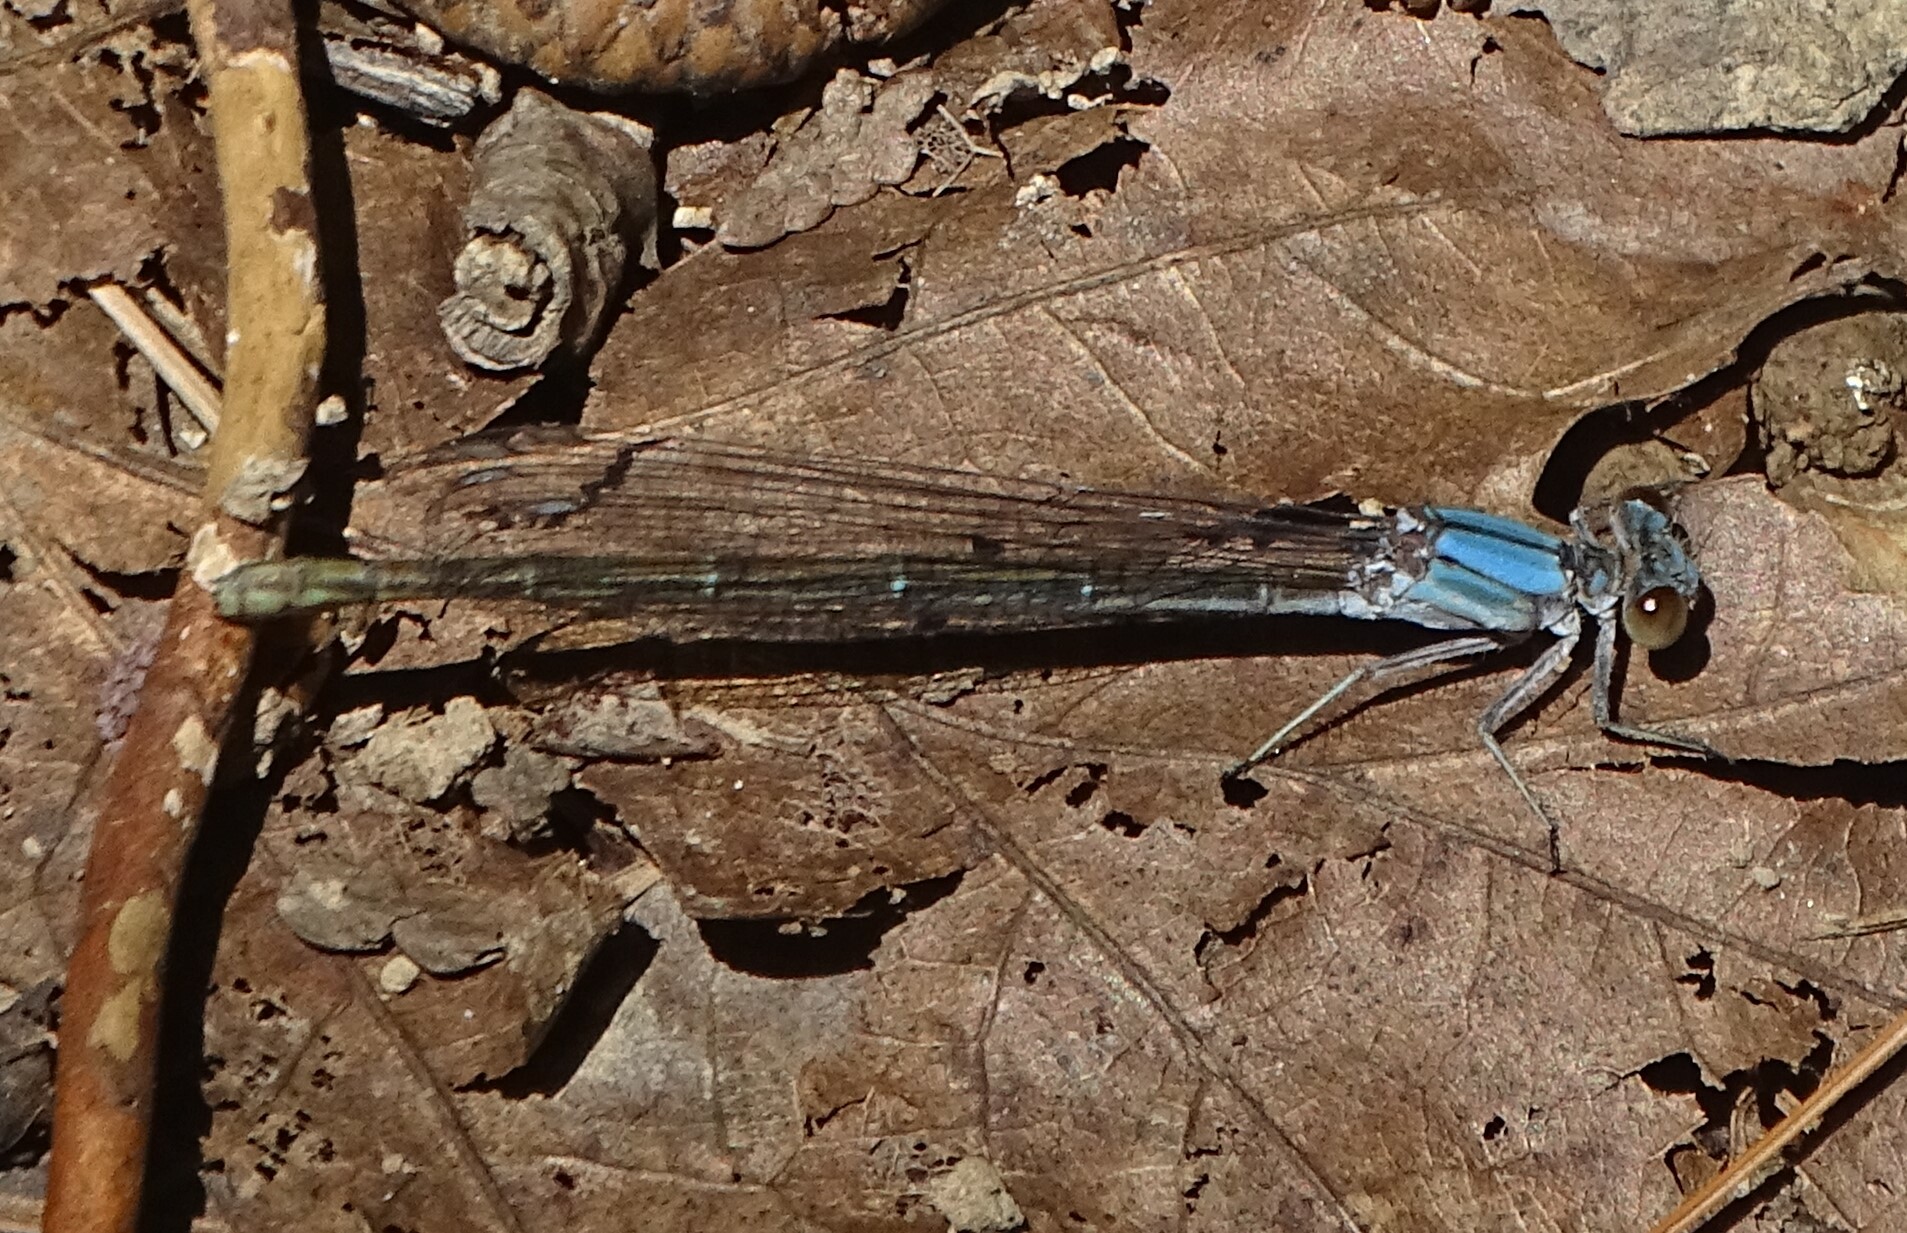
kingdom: Animalia
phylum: Arthropoda
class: Insecta
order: Odonata
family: Coenagrionidae
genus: Argia
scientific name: Argia moesta
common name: Powdered dancer
